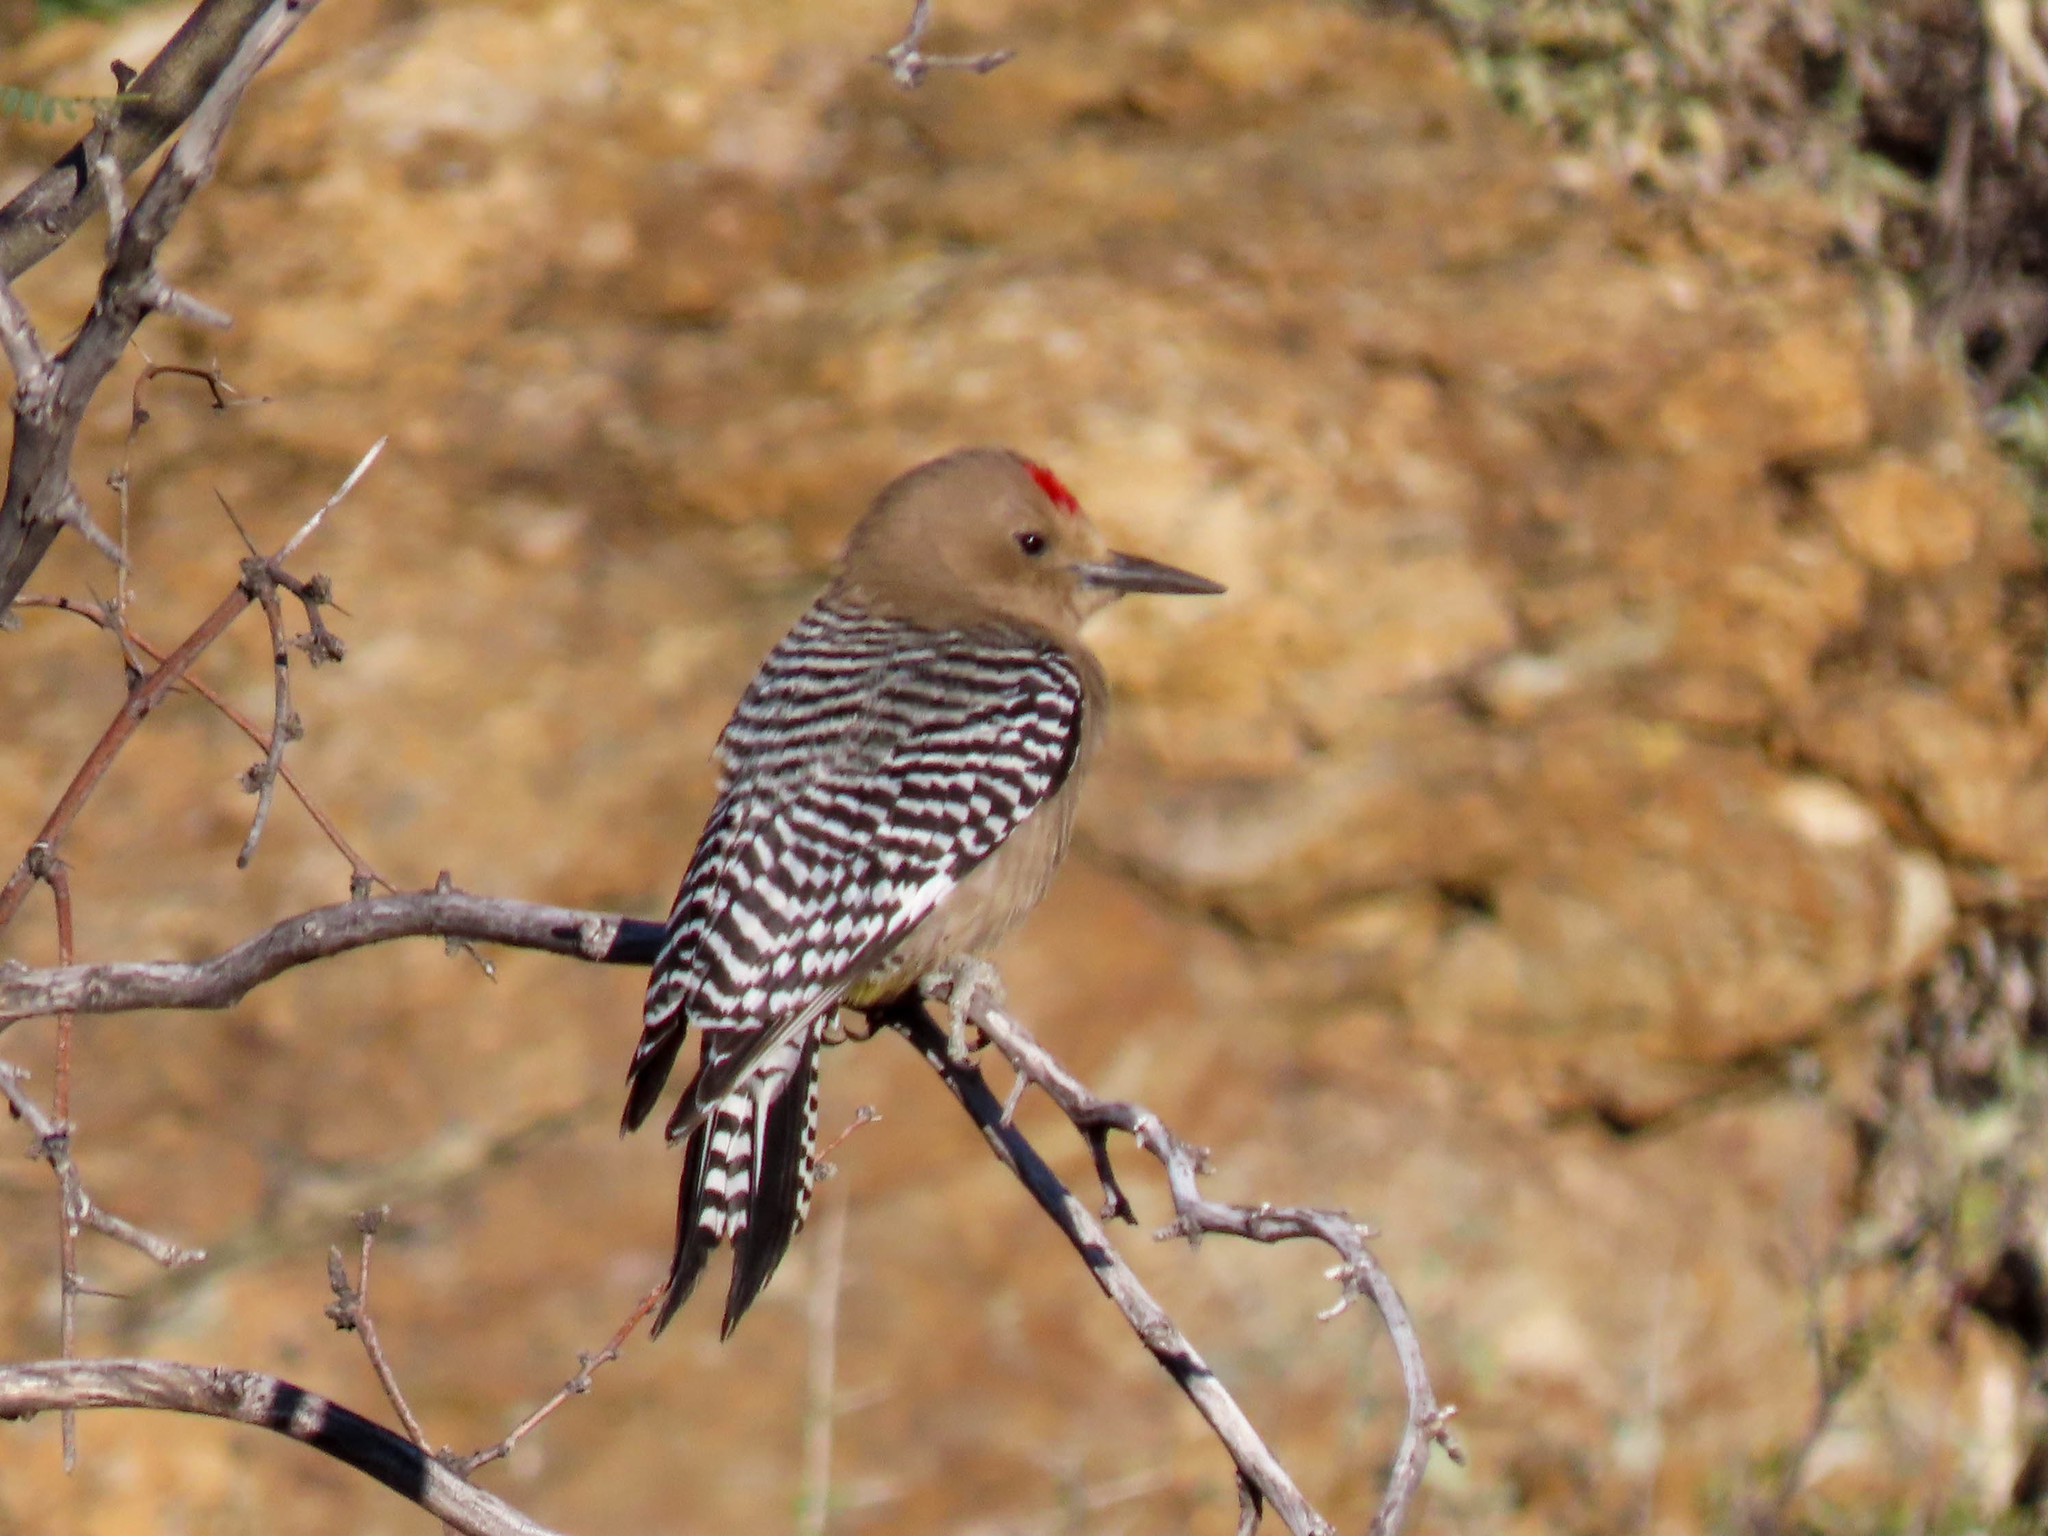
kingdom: Animalia
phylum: Chordata
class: Aves
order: Piciformes
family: Picidae
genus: Melanerpes
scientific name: Melanerpes uropygialis
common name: Gila woodpecker
